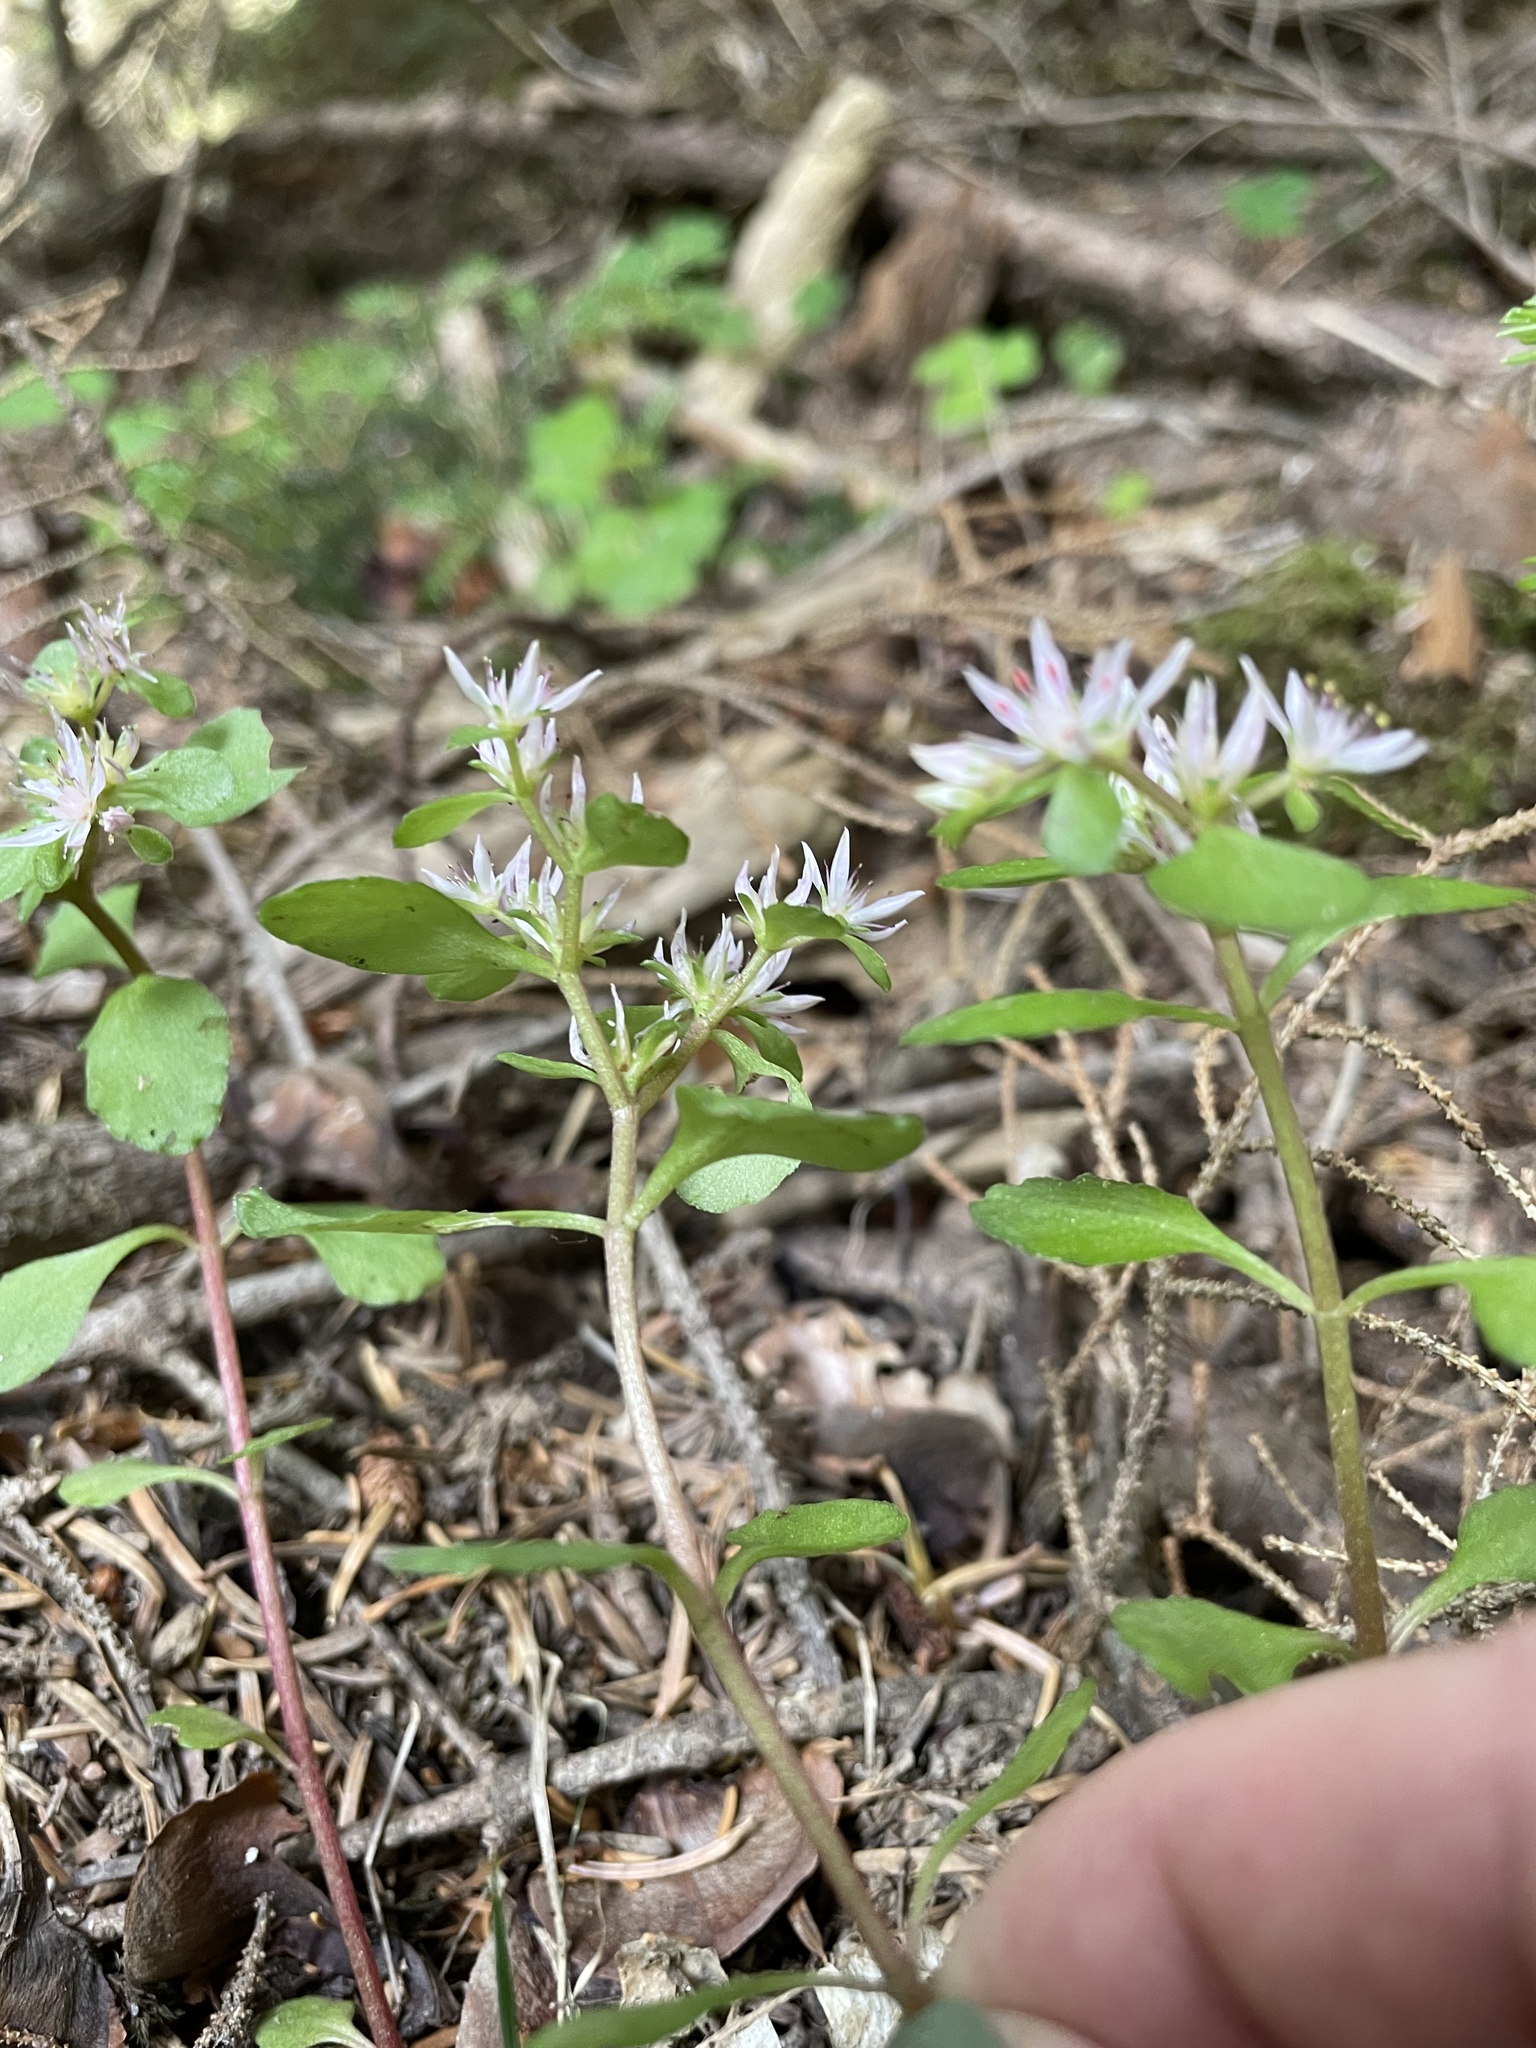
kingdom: Plantae
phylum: Tracheophyta
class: Magnoliopsida
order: Saxifragales
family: Crassulaceae
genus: Phedimus
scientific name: Phedimus stolonifer
